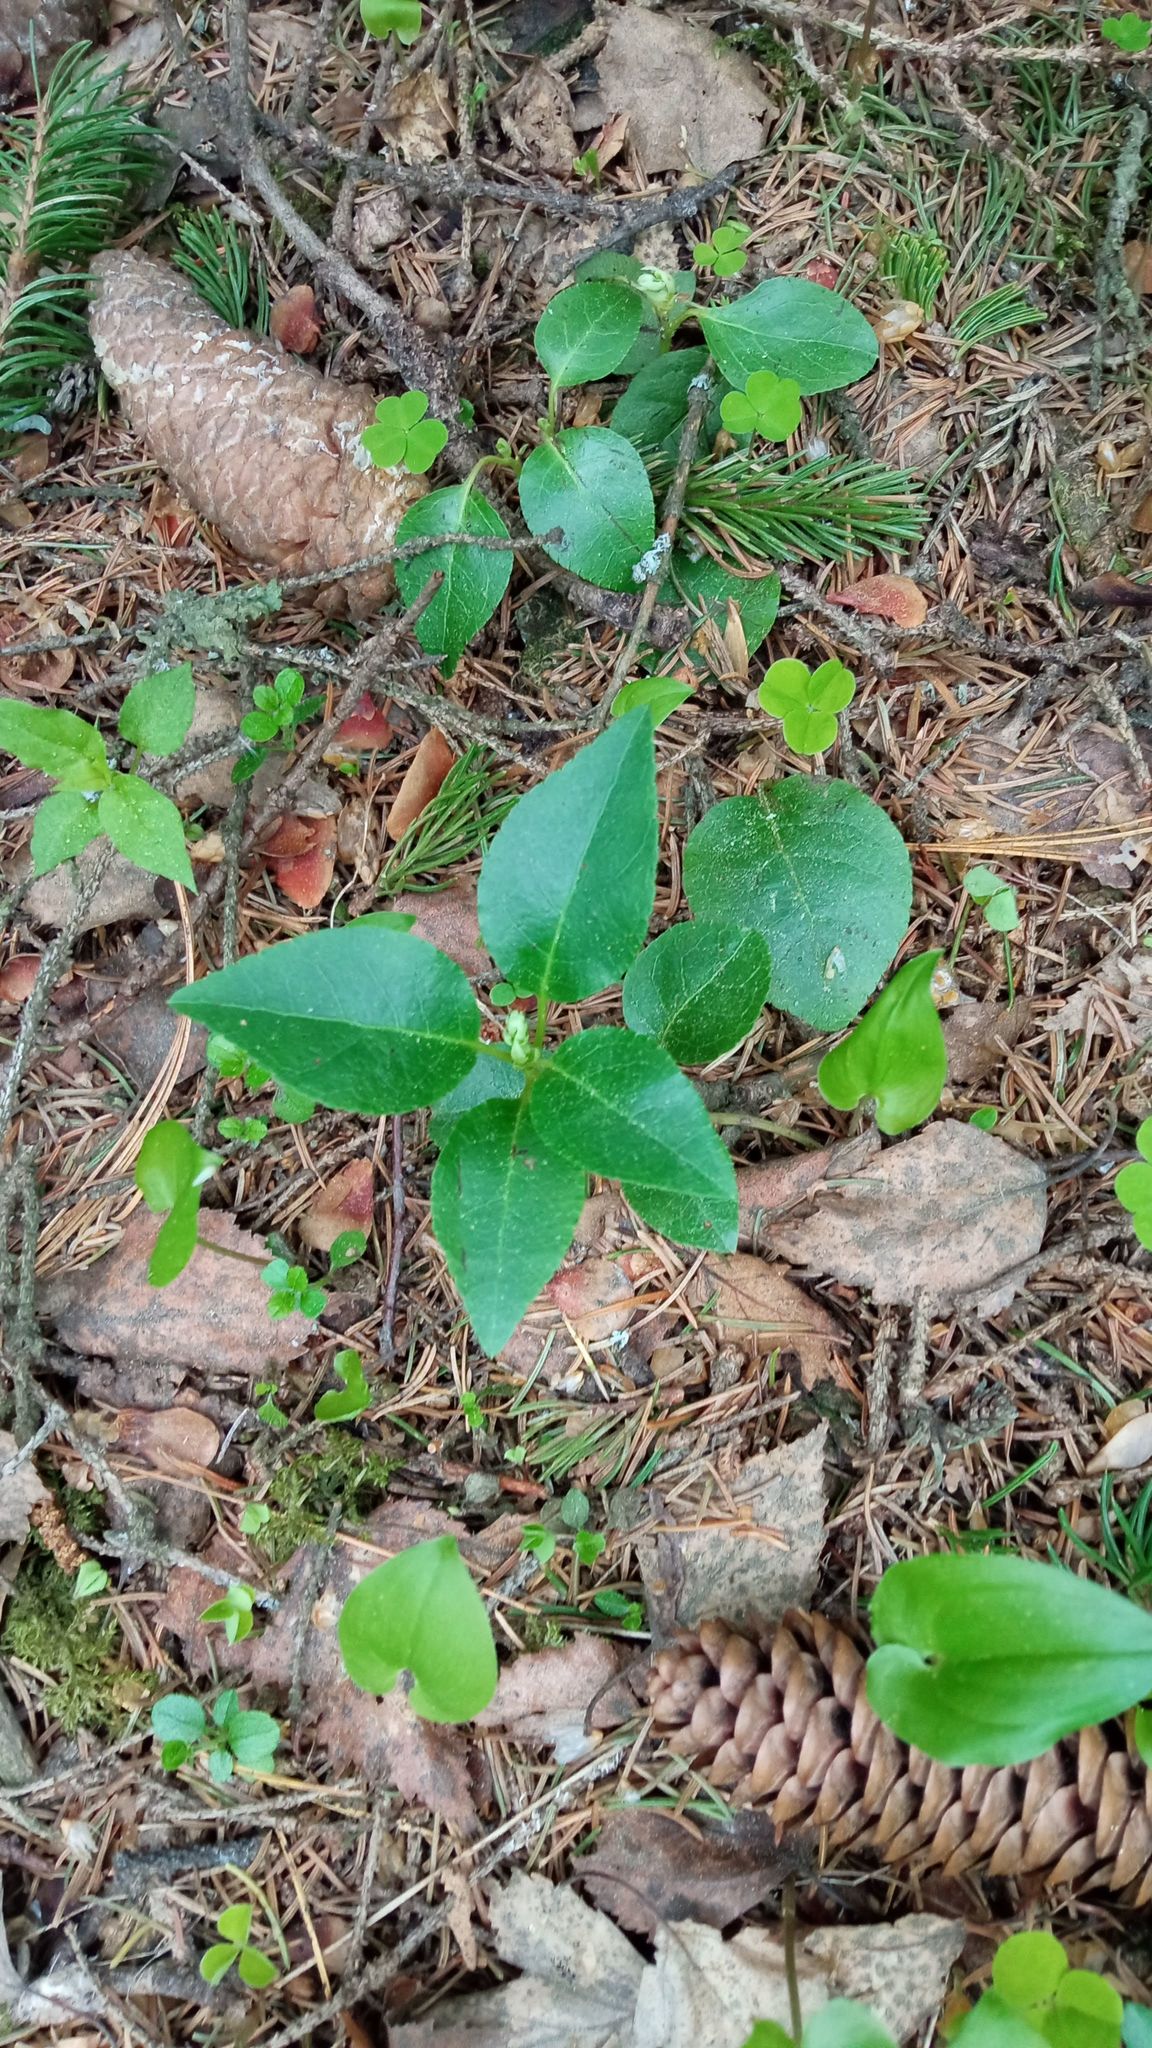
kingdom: Plantae
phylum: Tracheophyta
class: Magnoliopsida
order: Ericales
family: Ericaceae
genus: Orthilia
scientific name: Orthilia secunda
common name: One-sided orthilia
